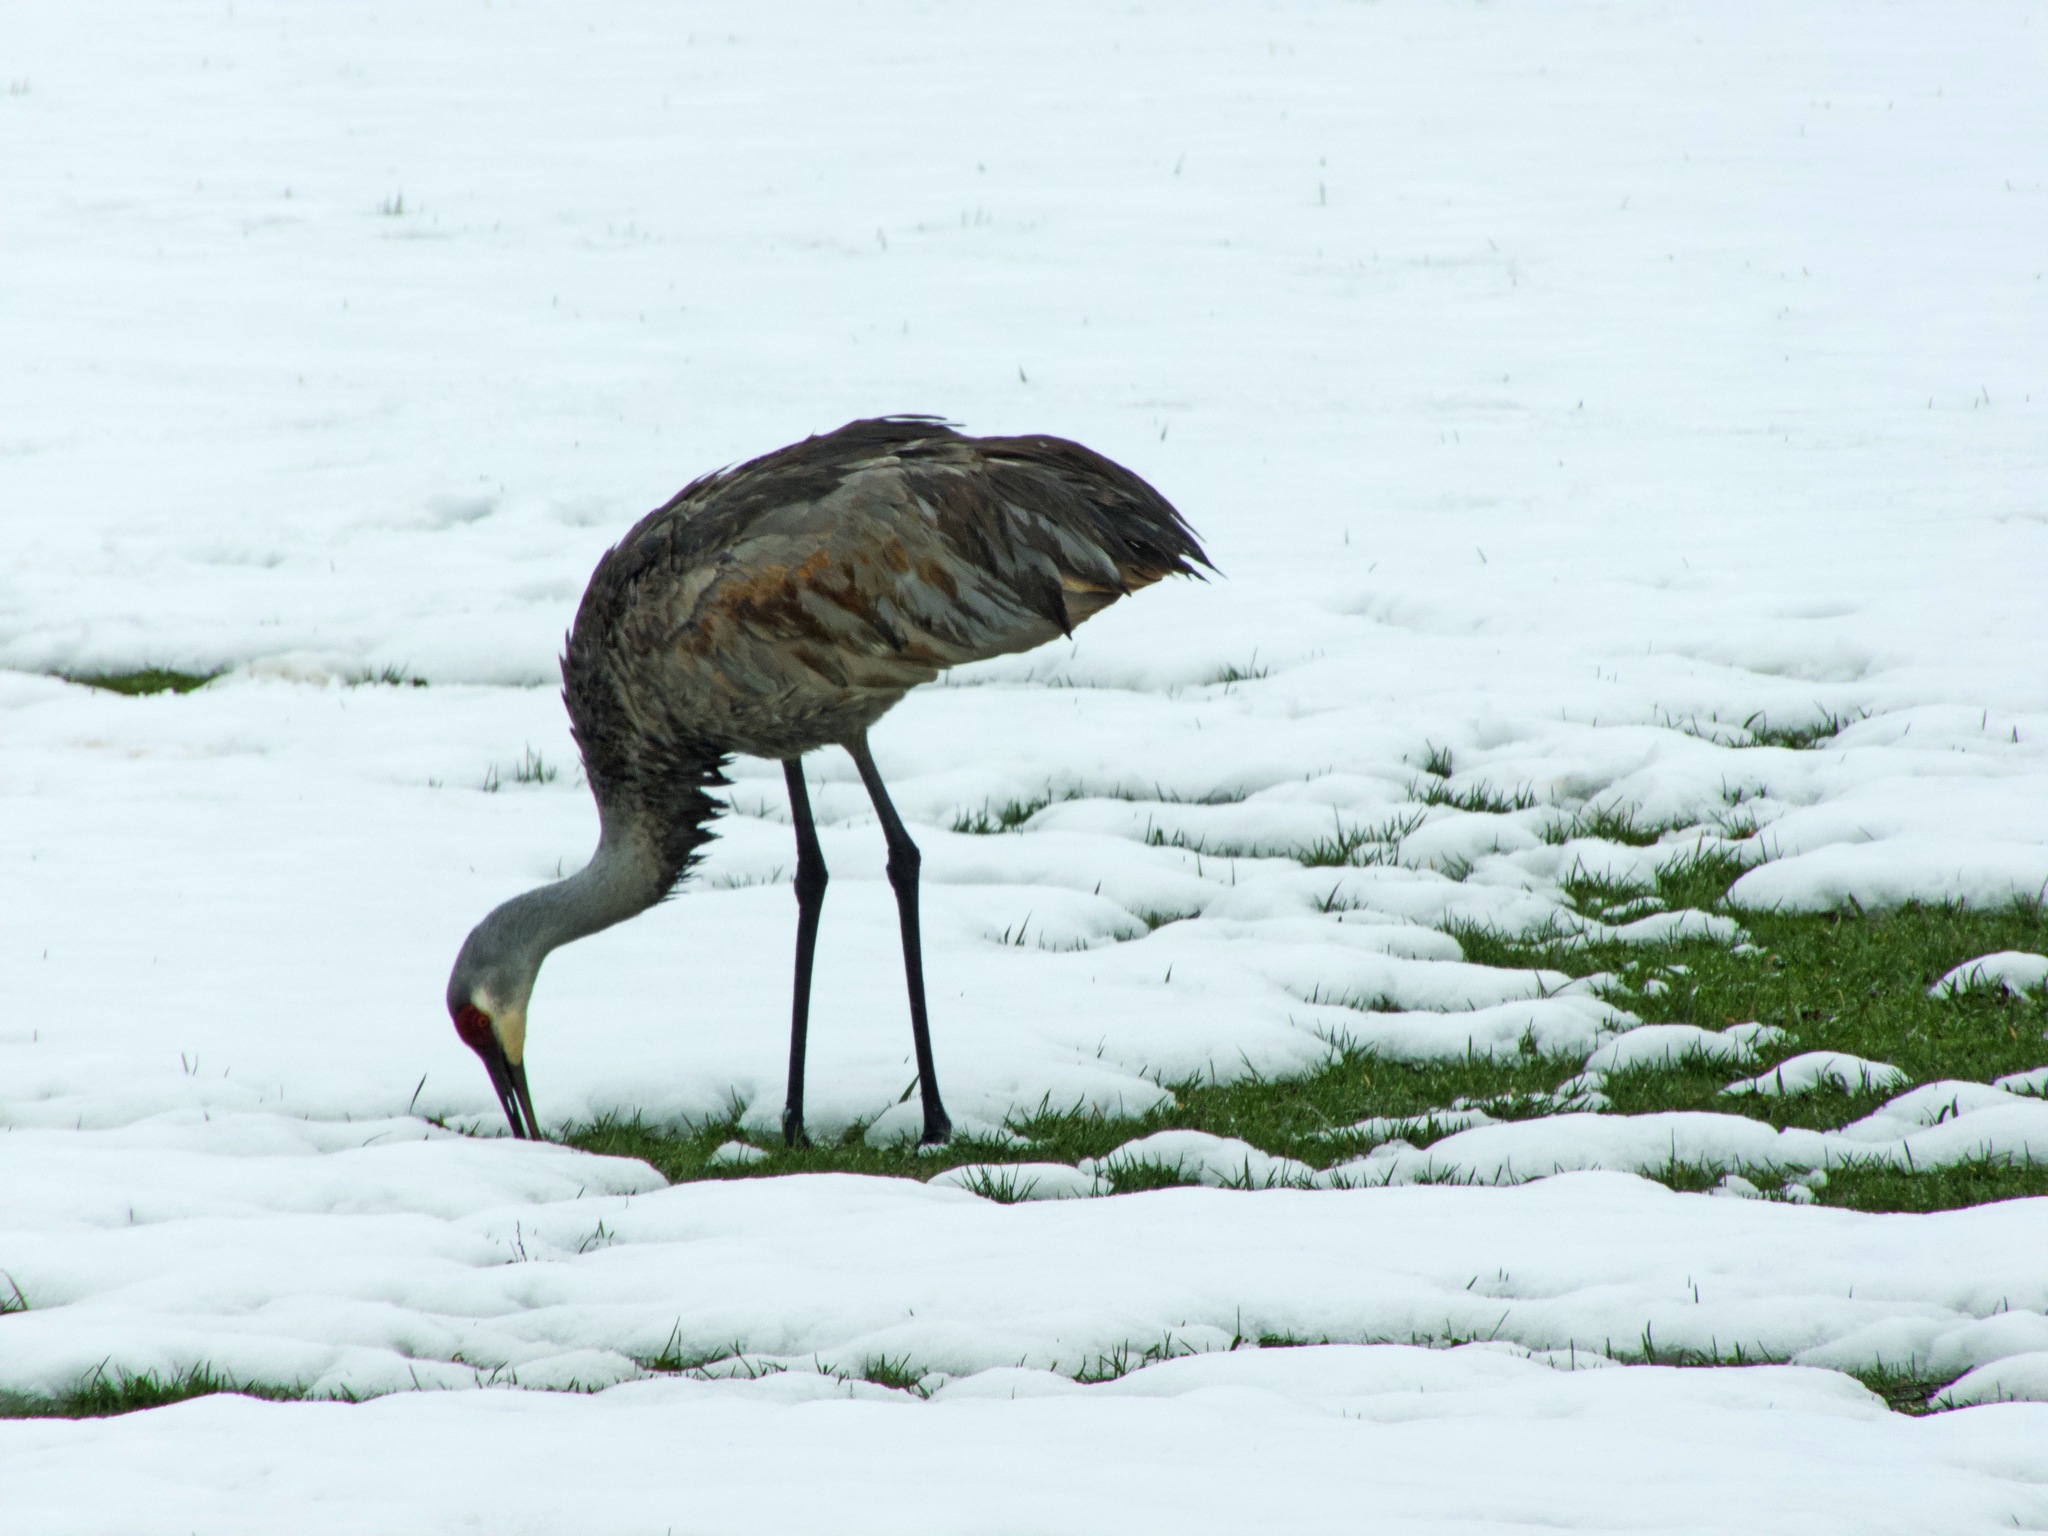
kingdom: Animalia
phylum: Chordata
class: Aves
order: Gruiformes
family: Gruidae
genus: Grus
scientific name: Grus canadensis
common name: Sandhill crane
